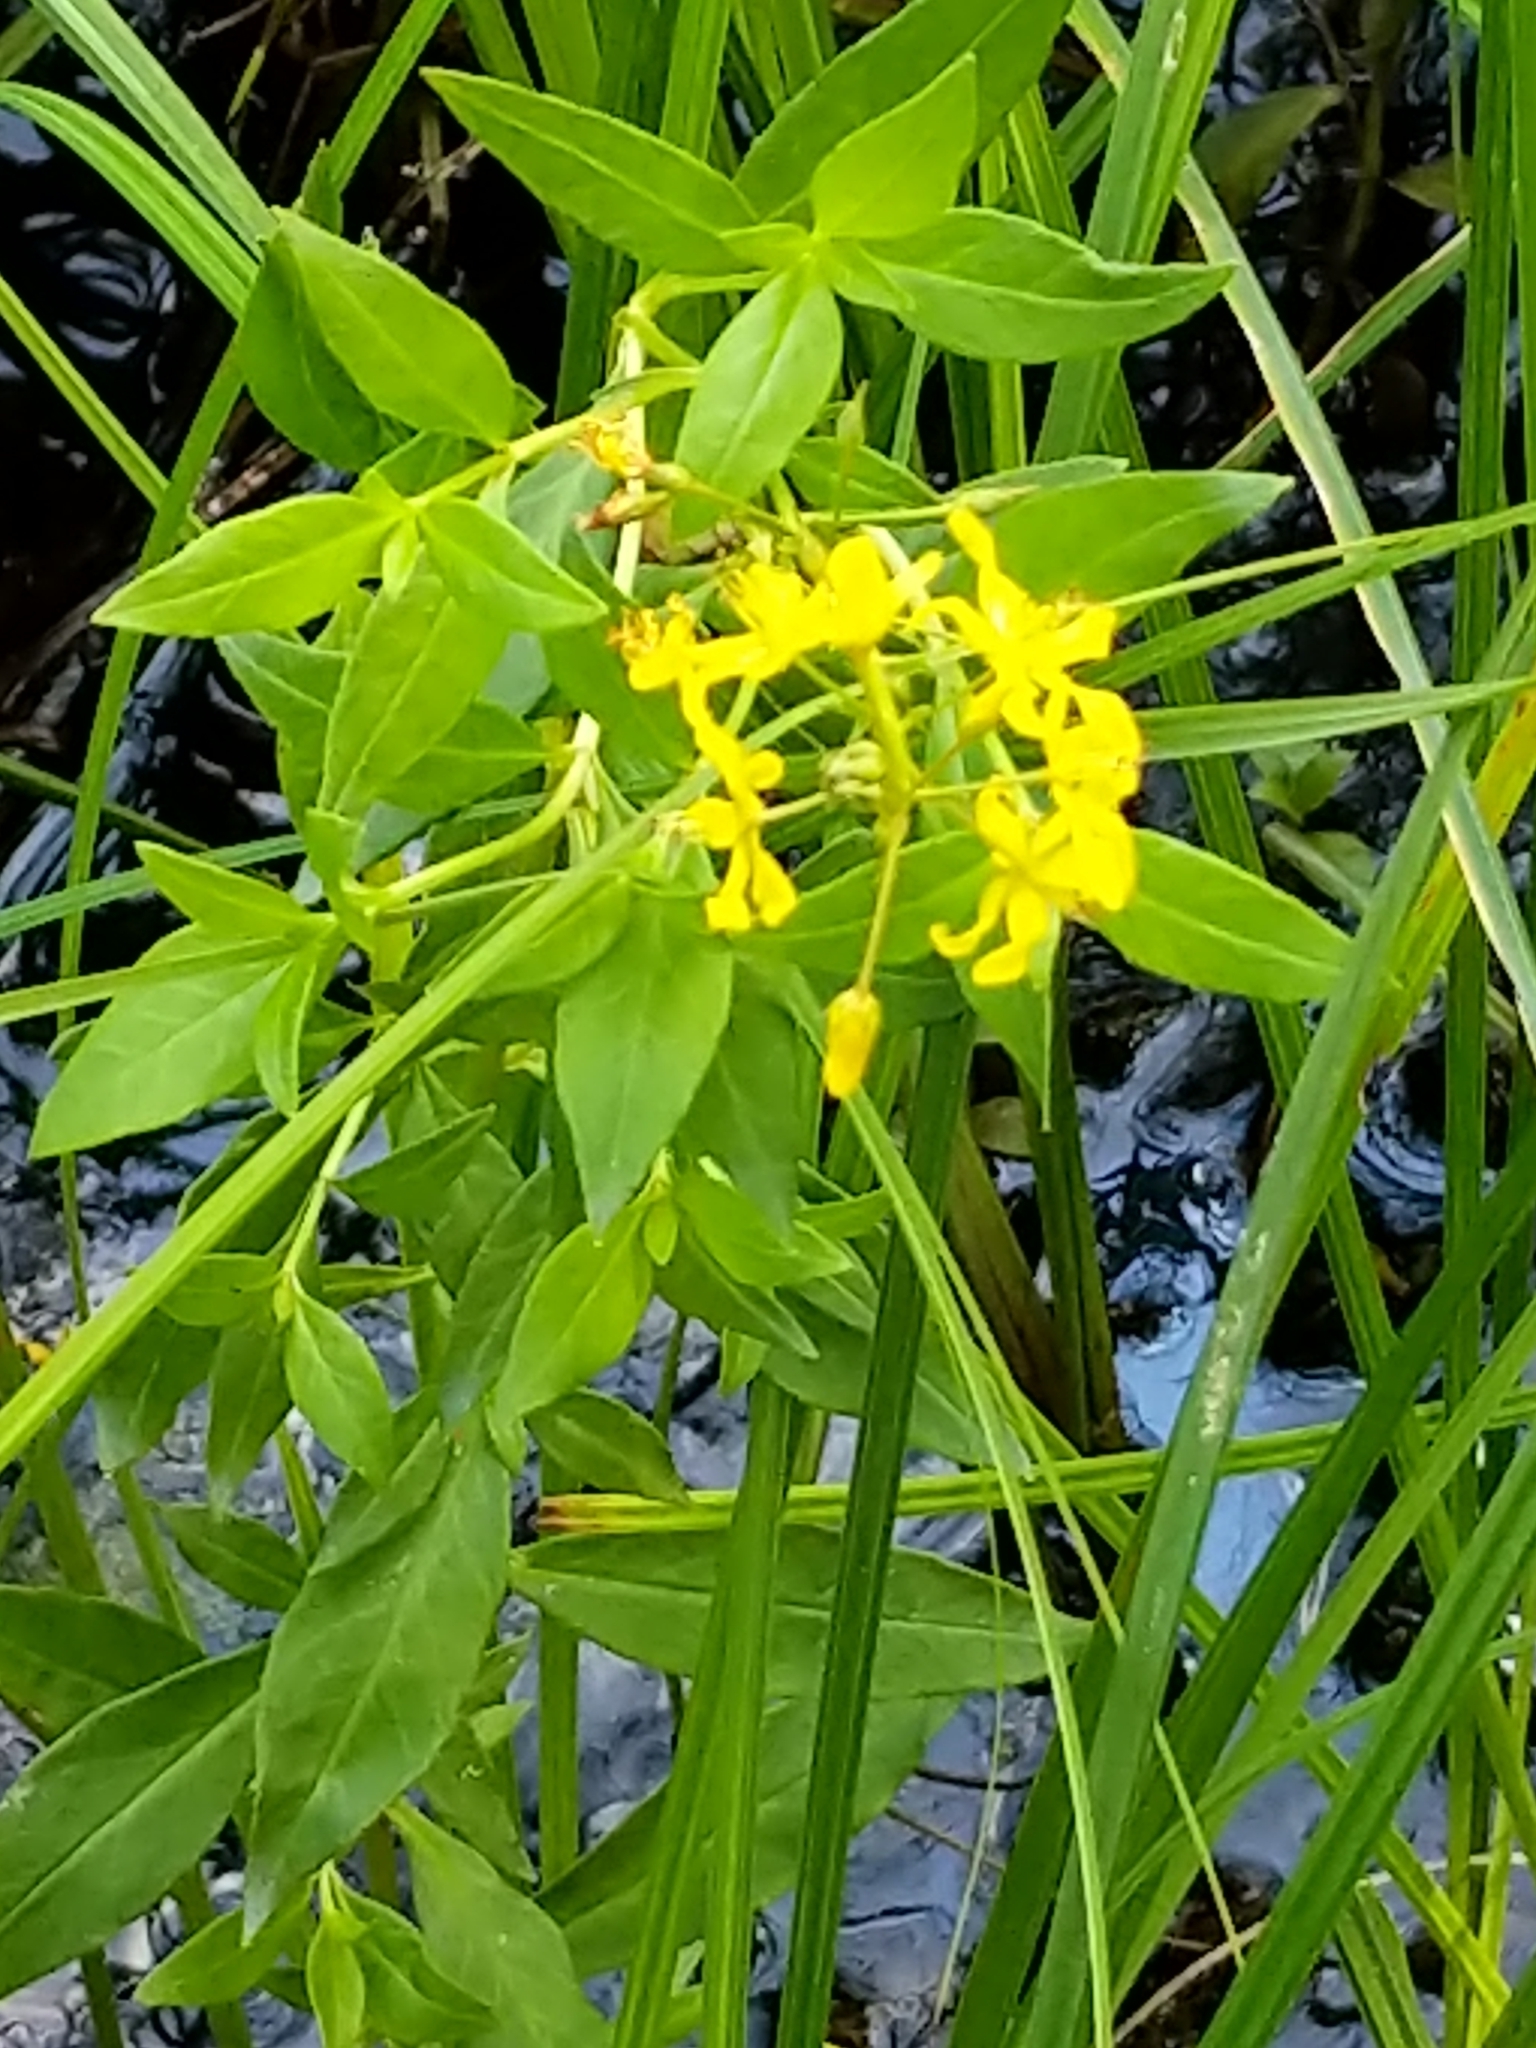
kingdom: Plantae
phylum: Tracheophyta
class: Magnoliopsida
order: Ericales
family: Primulaceae
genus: Lysimachia
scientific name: Lysimachia terrestris
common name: Lake loosestrife
